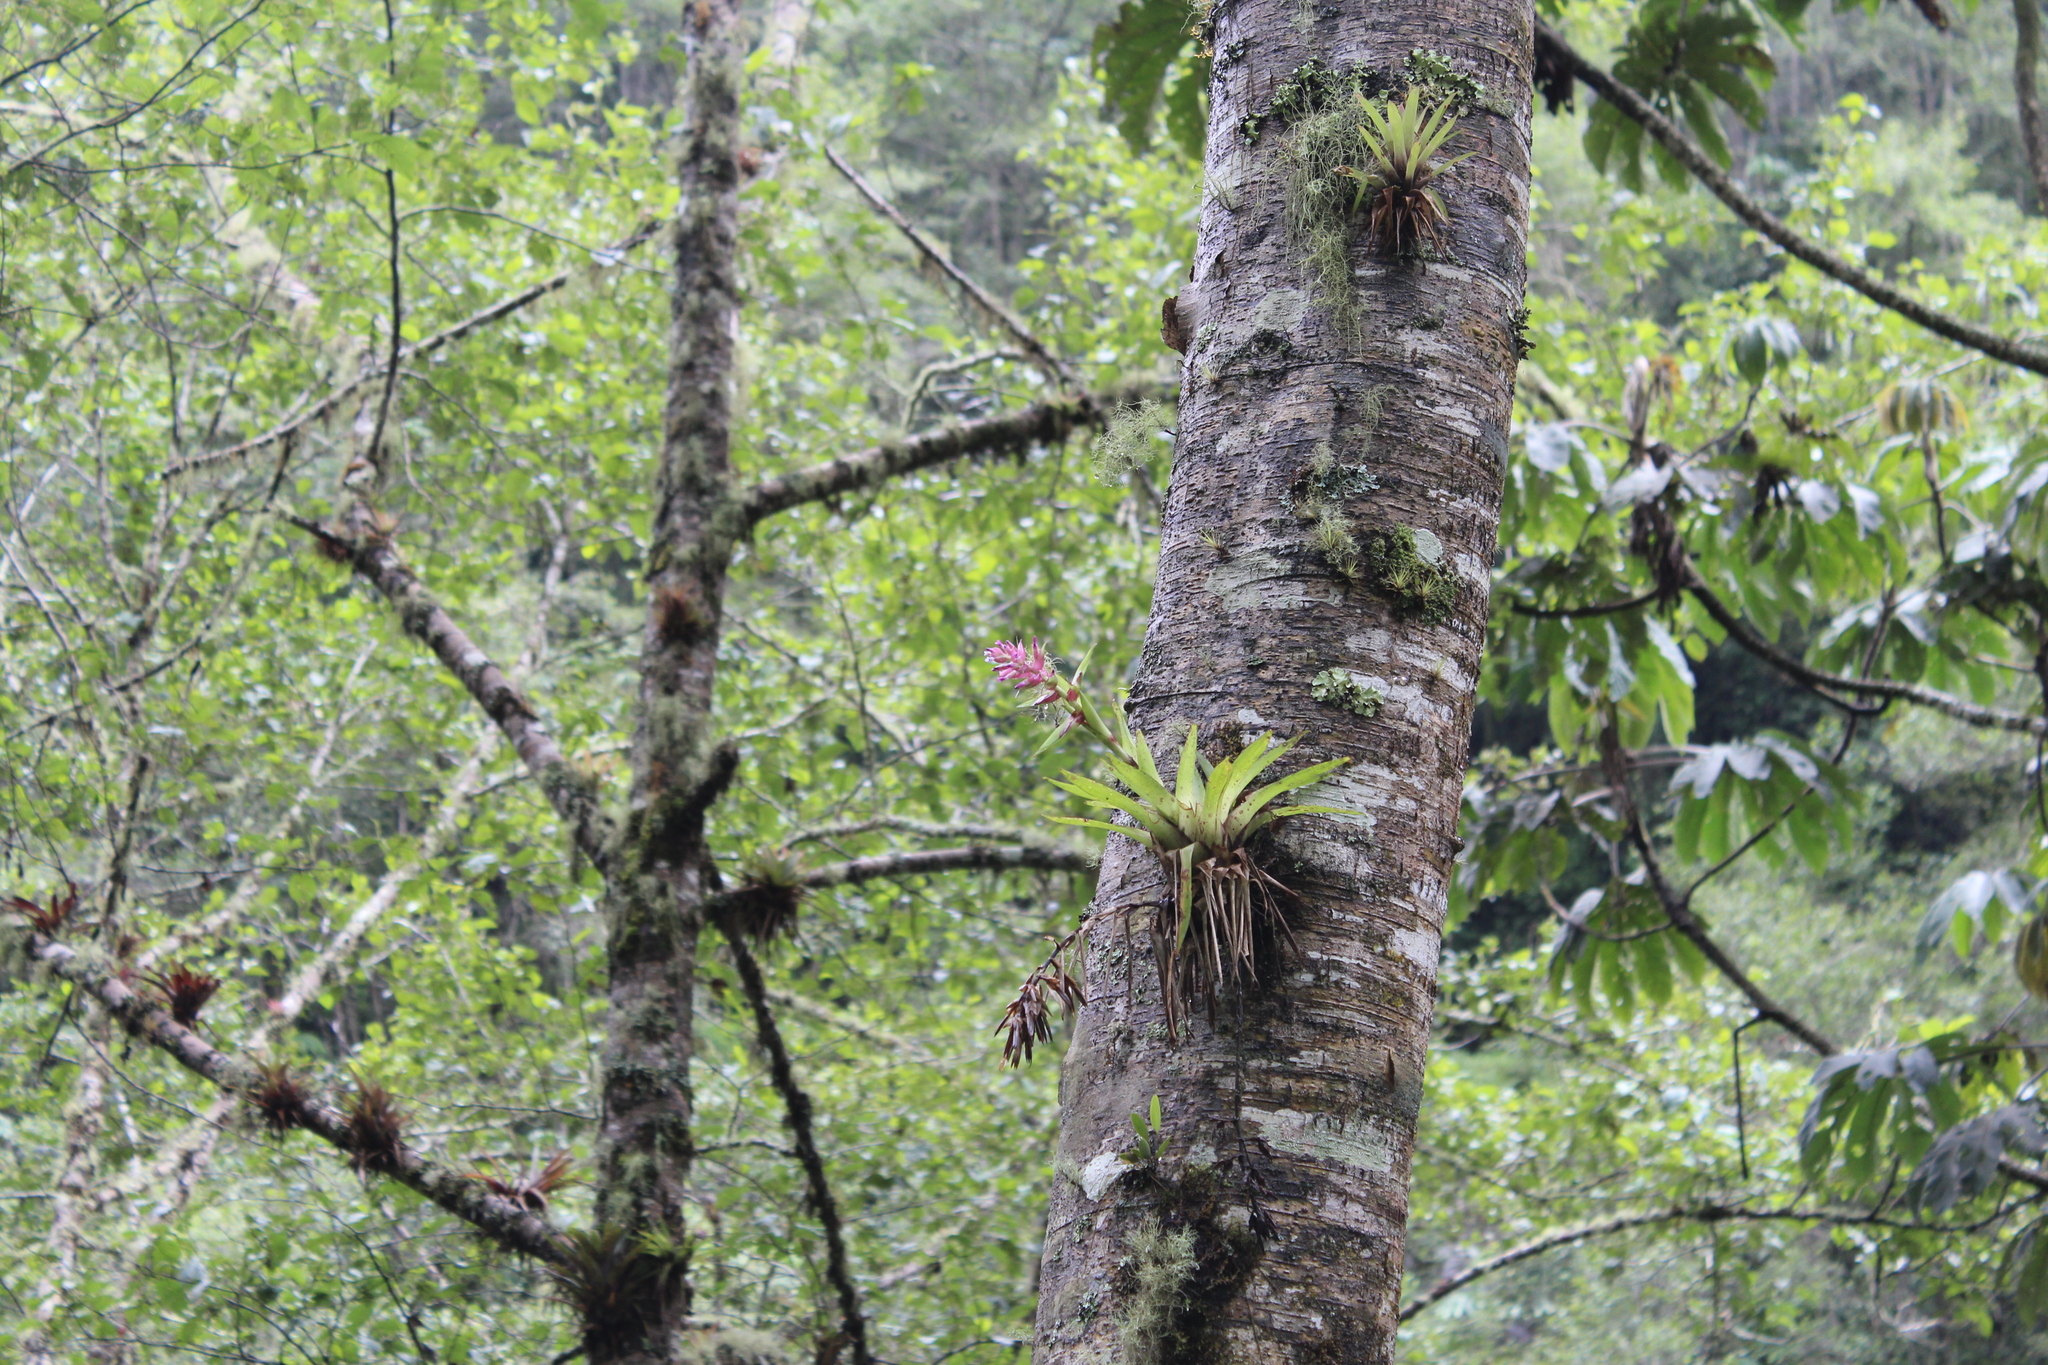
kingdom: Plantae
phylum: Tracheophyta
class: Liliopsida
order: Poales
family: Bromeliaceae
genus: Tillandsia
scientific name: Tillandsia biflora
